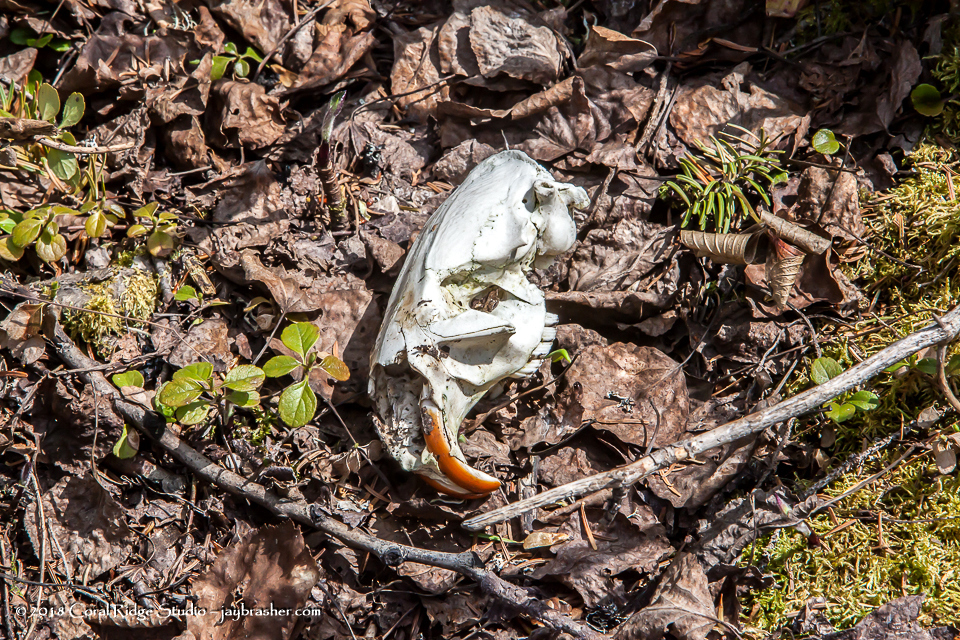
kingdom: Animalia
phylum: Chordata
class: Mammalia
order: Rodentia
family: Castoridae
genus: Castor
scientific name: Castor canadensis
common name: American beaver
